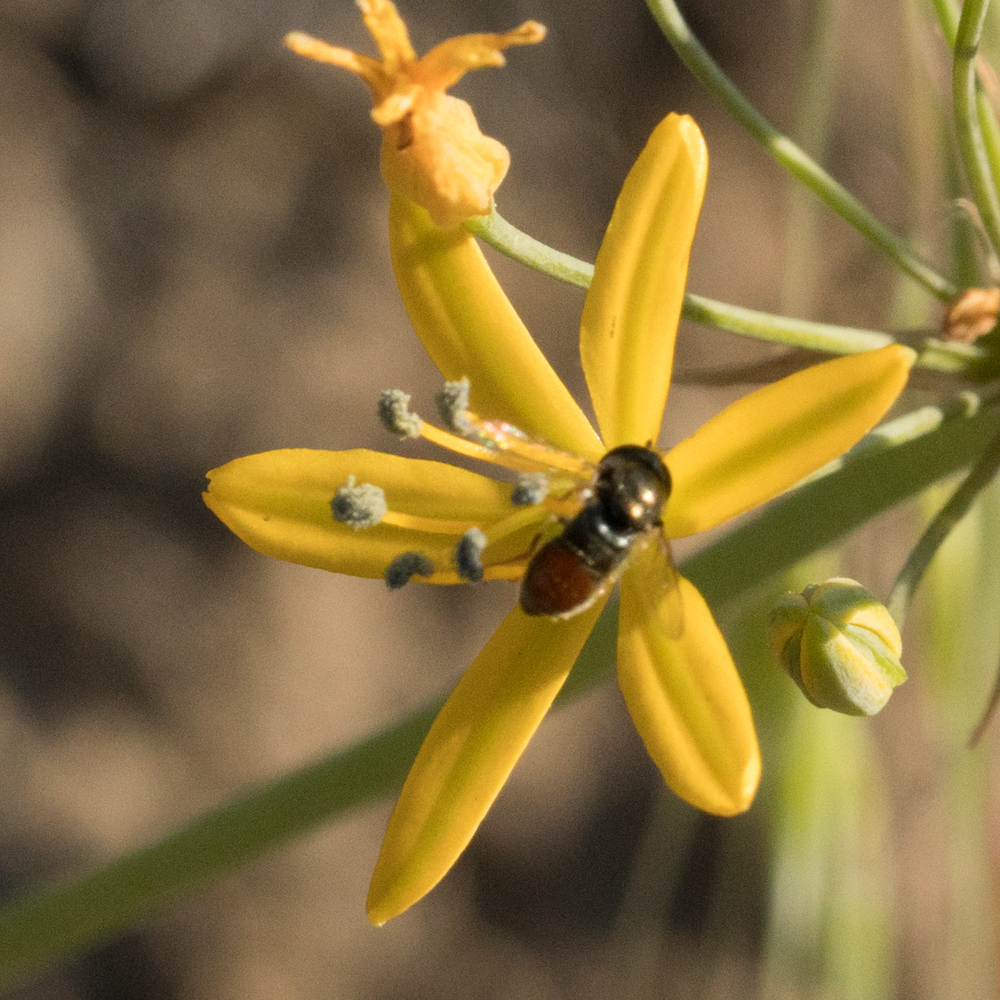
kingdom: Animalia
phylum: Arthropoda
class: Insecta
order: Diptera
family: Syrphidae
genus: Paragus
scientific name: Paragus haemorrhous
